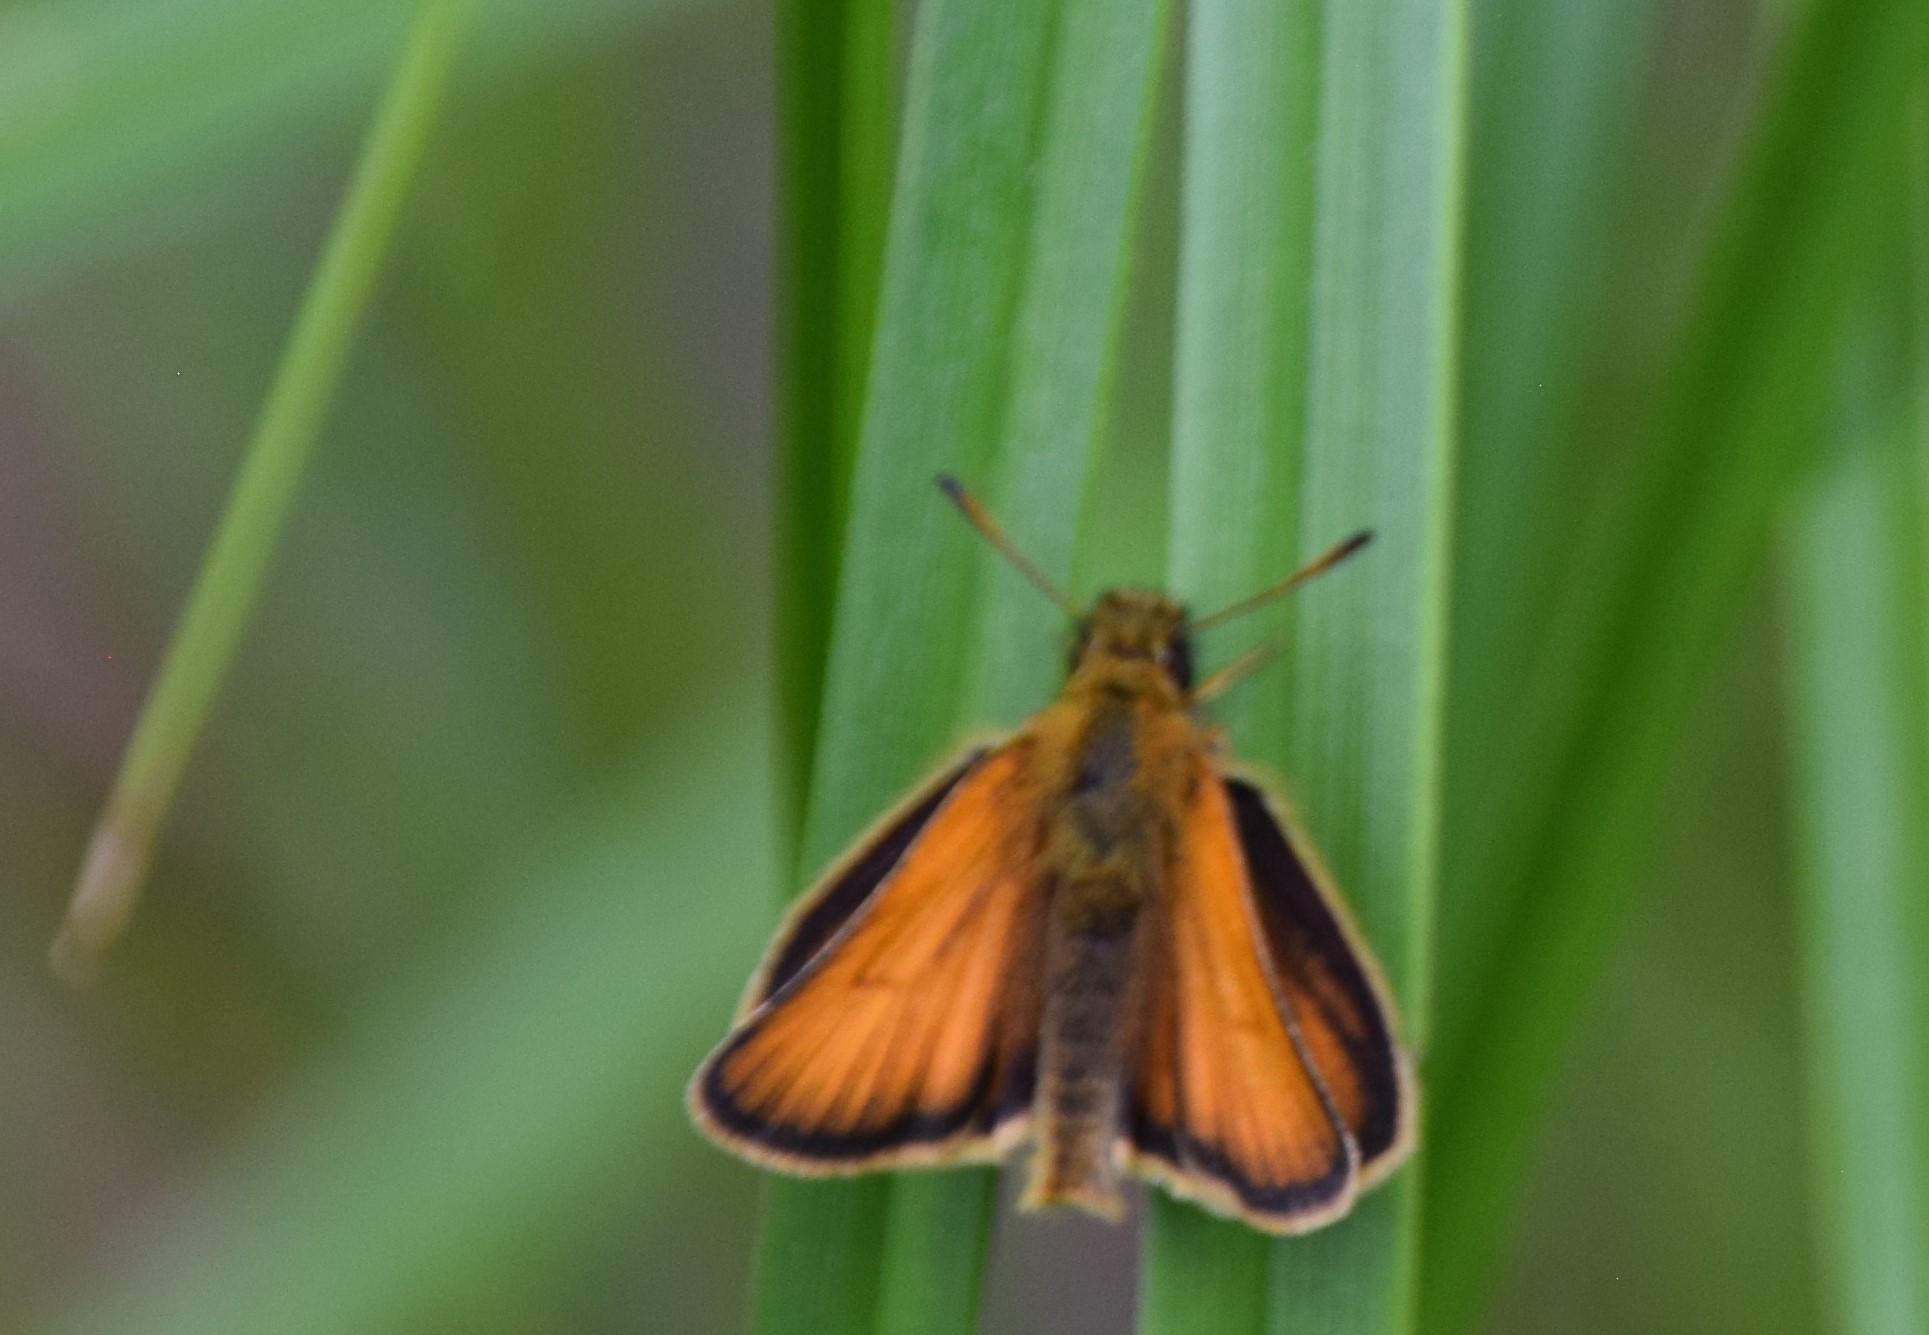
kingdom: Animalia
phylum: Arthropoda
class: Insecta
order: Lepidoptera
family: Hesperiidae
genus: Thymelicus
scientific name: Thymelicus lineola
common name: Essex skipper
